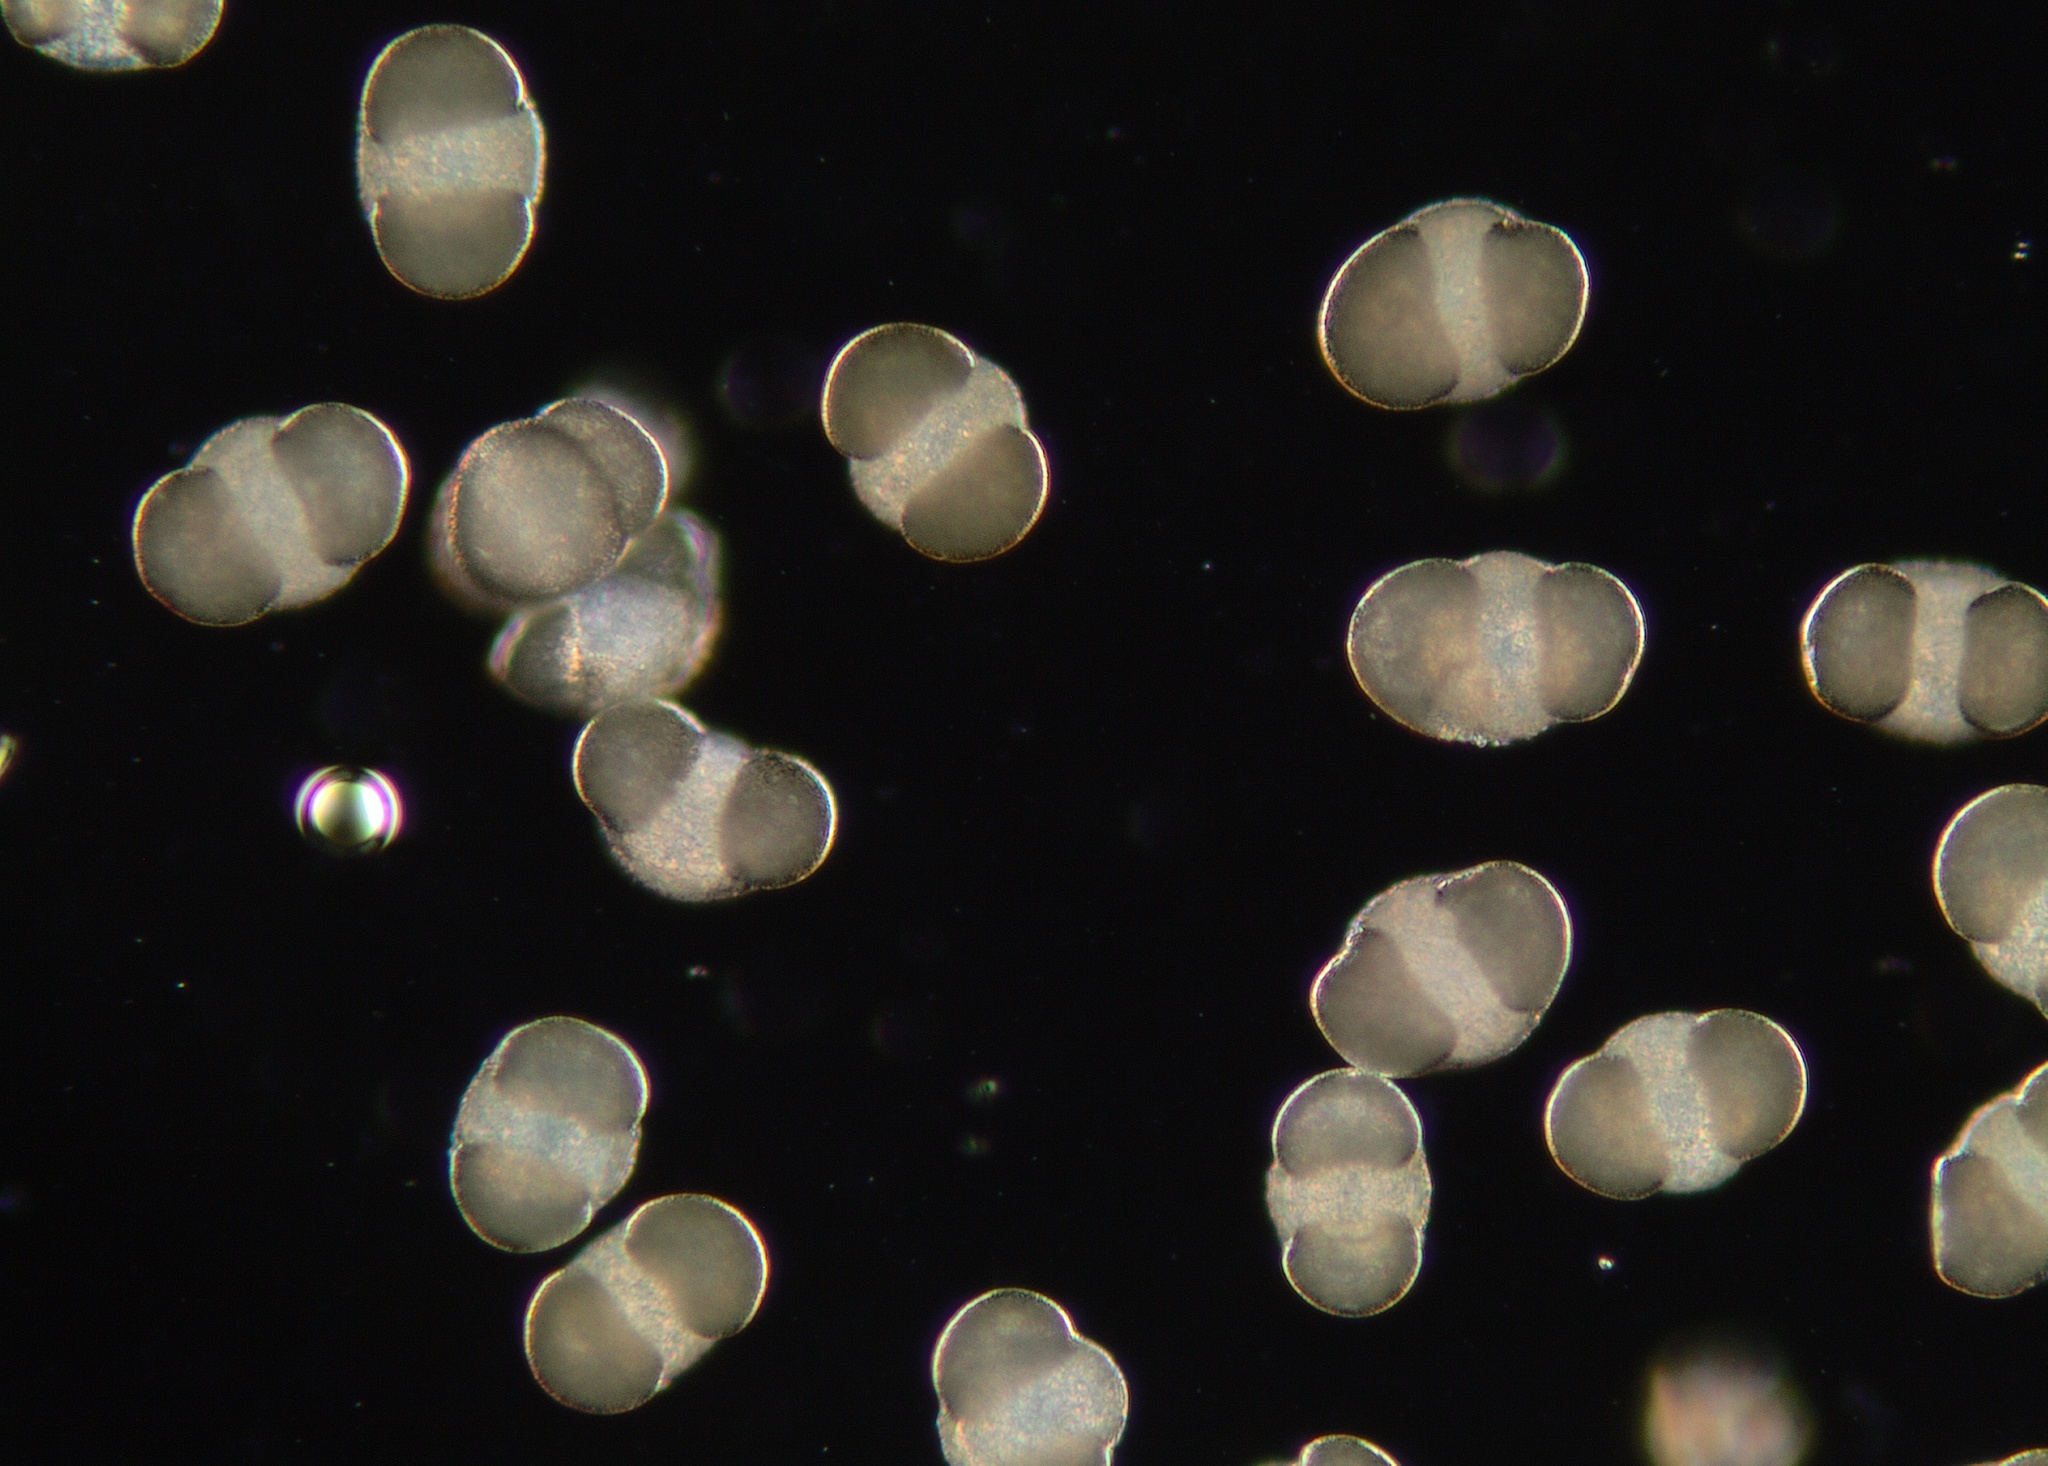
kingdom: Plantae
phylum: Tracheophyta
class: Pinopsida
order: Pinales
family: Pinaceae
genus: Pinus
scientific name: Pinus radiata
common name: Monterey pine
